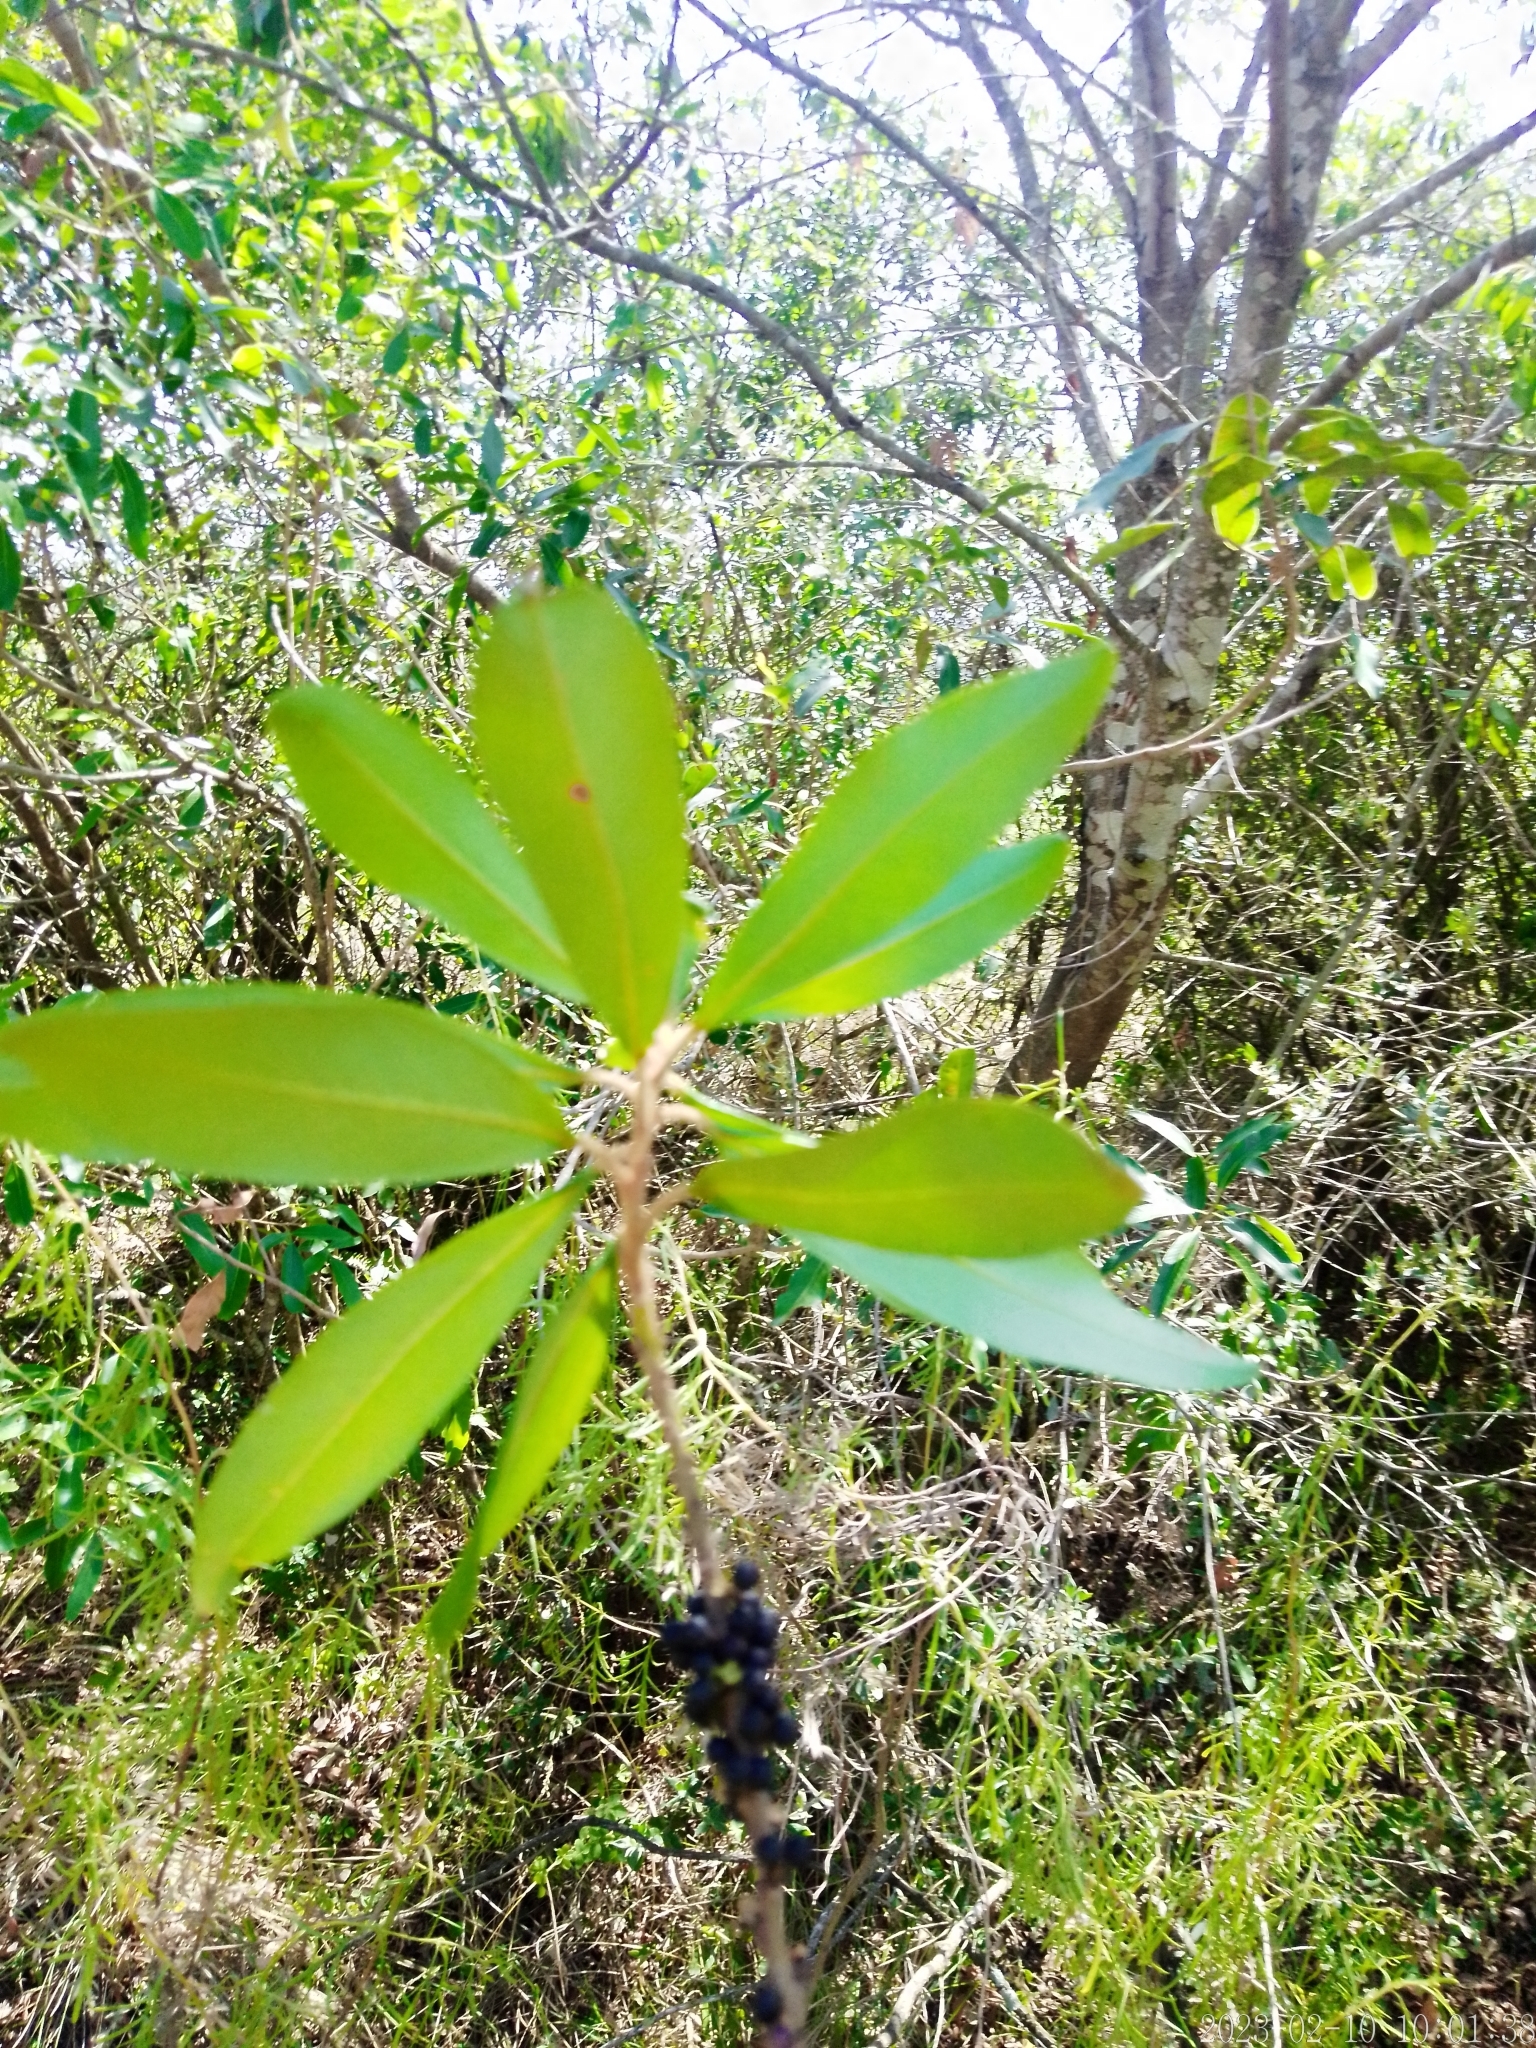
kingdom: Plantae
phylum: Tracheophyta
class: Magnoliopsida
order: Ericales
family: Primulaceae
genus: Myrsine
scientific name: Myrsine laetevirens
